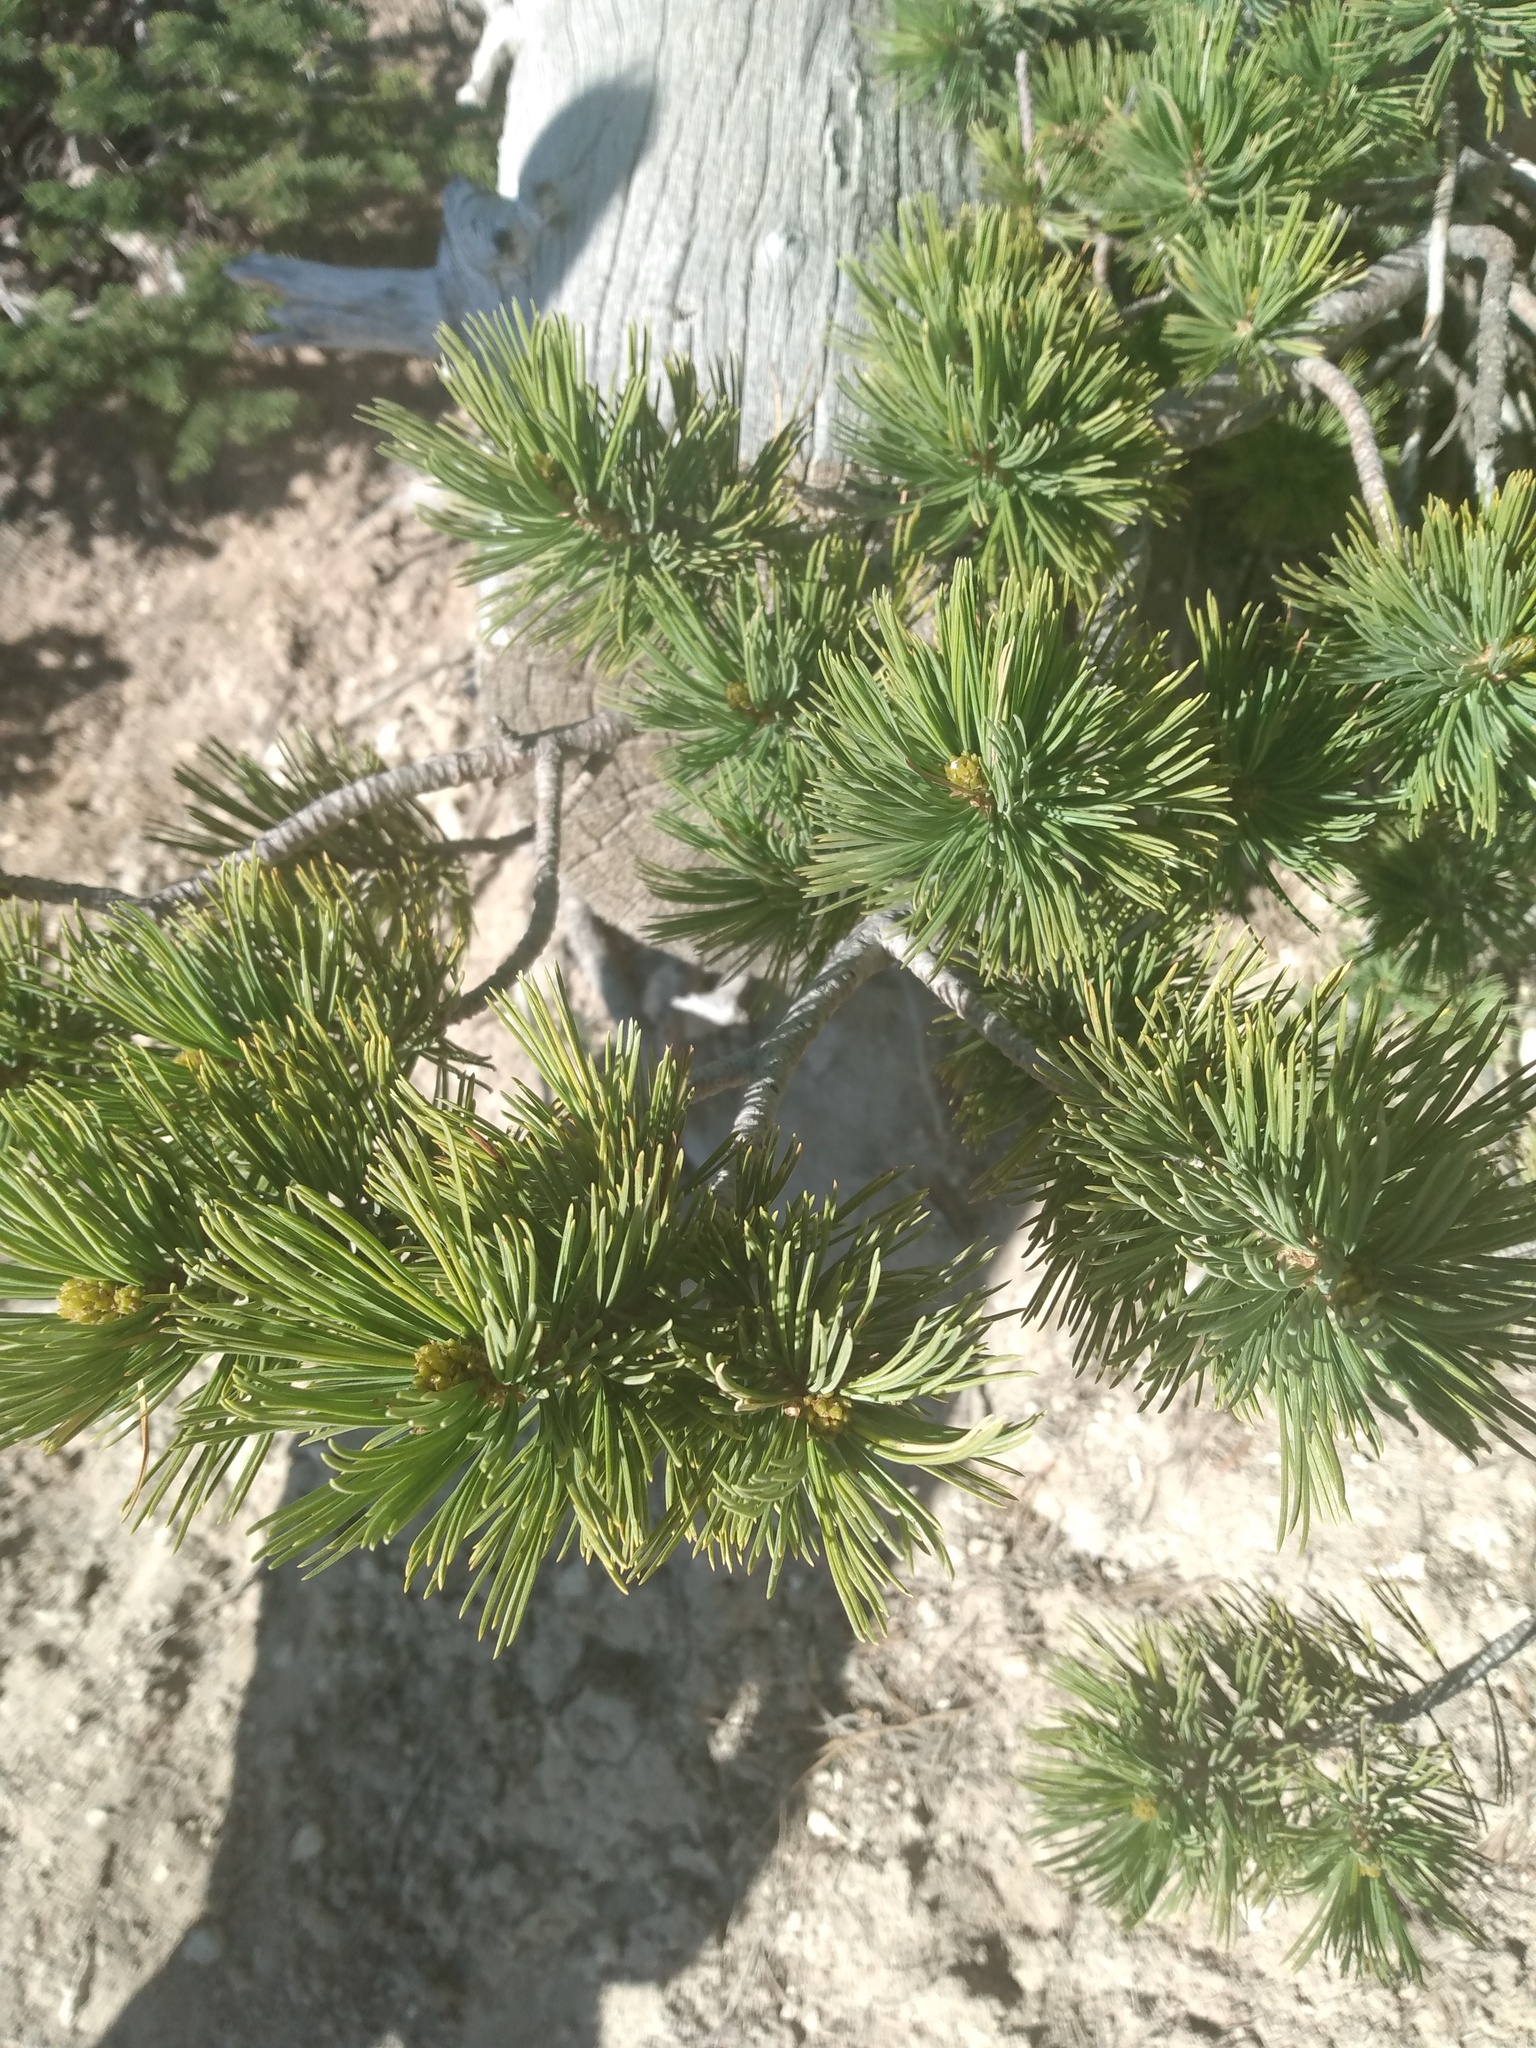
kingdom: Plantae
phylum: Tracheophyta
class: Pinopsida
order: Pinales
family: Pinaceae
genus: Pinus
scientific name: Pinus flexilis
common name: Limber pine
